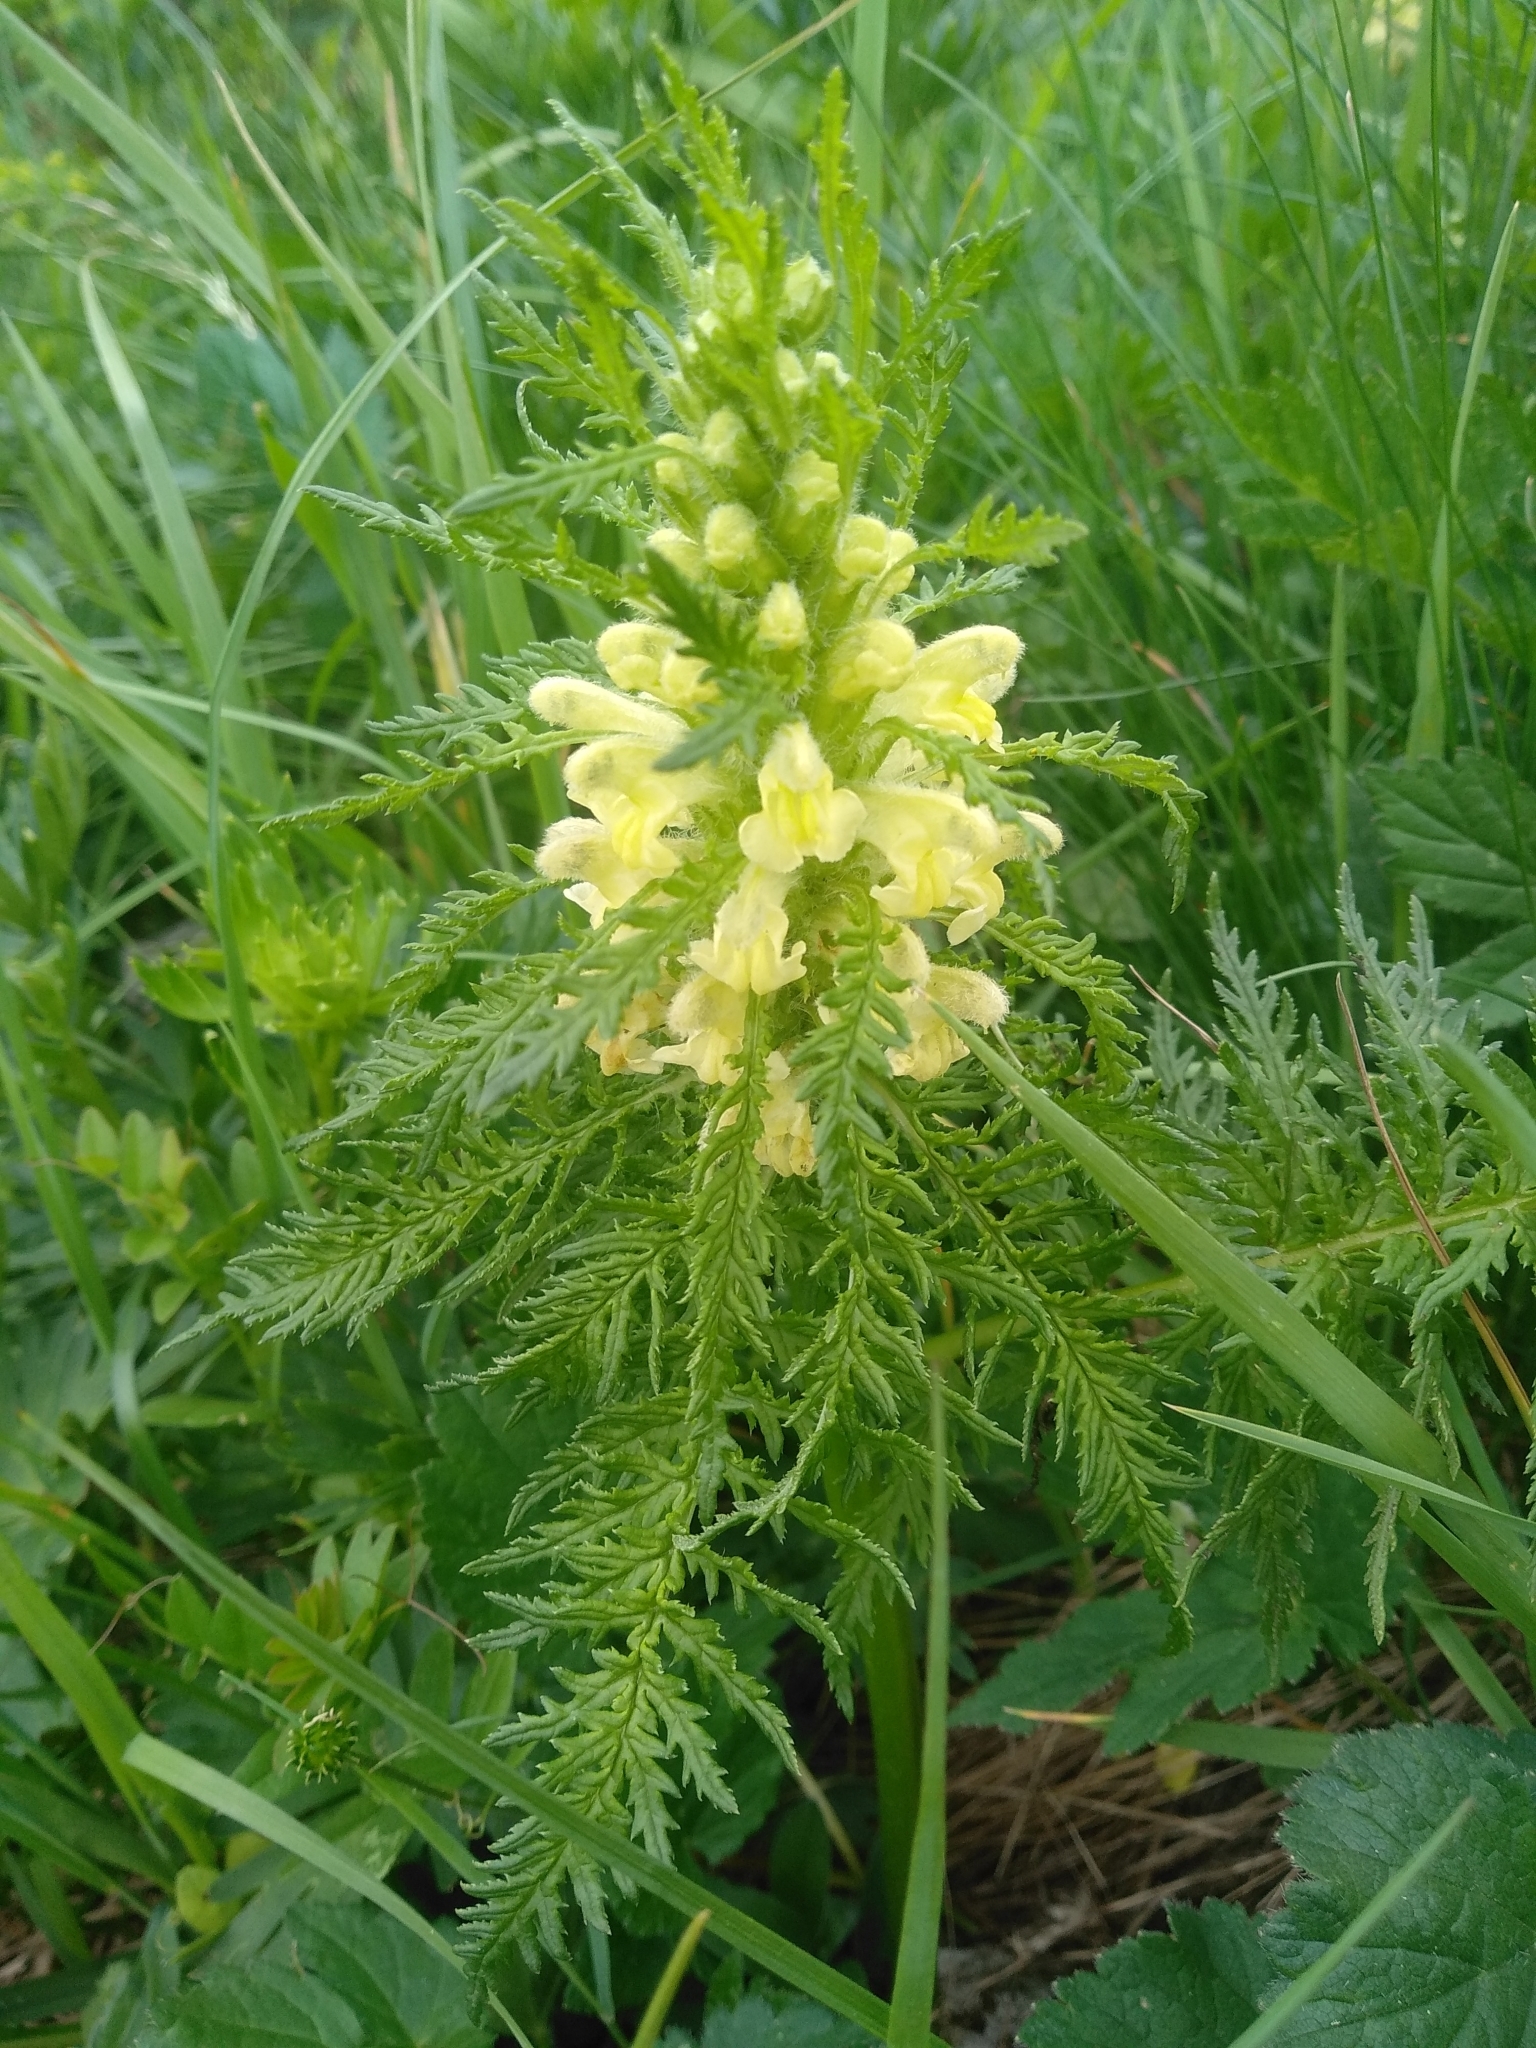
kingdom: Plantae
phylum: Tracheophyta
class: Magnoliopsida
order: Lamiales
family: Orobanchaceae
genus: Pedicularis
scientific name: Pedicularis foliosa
